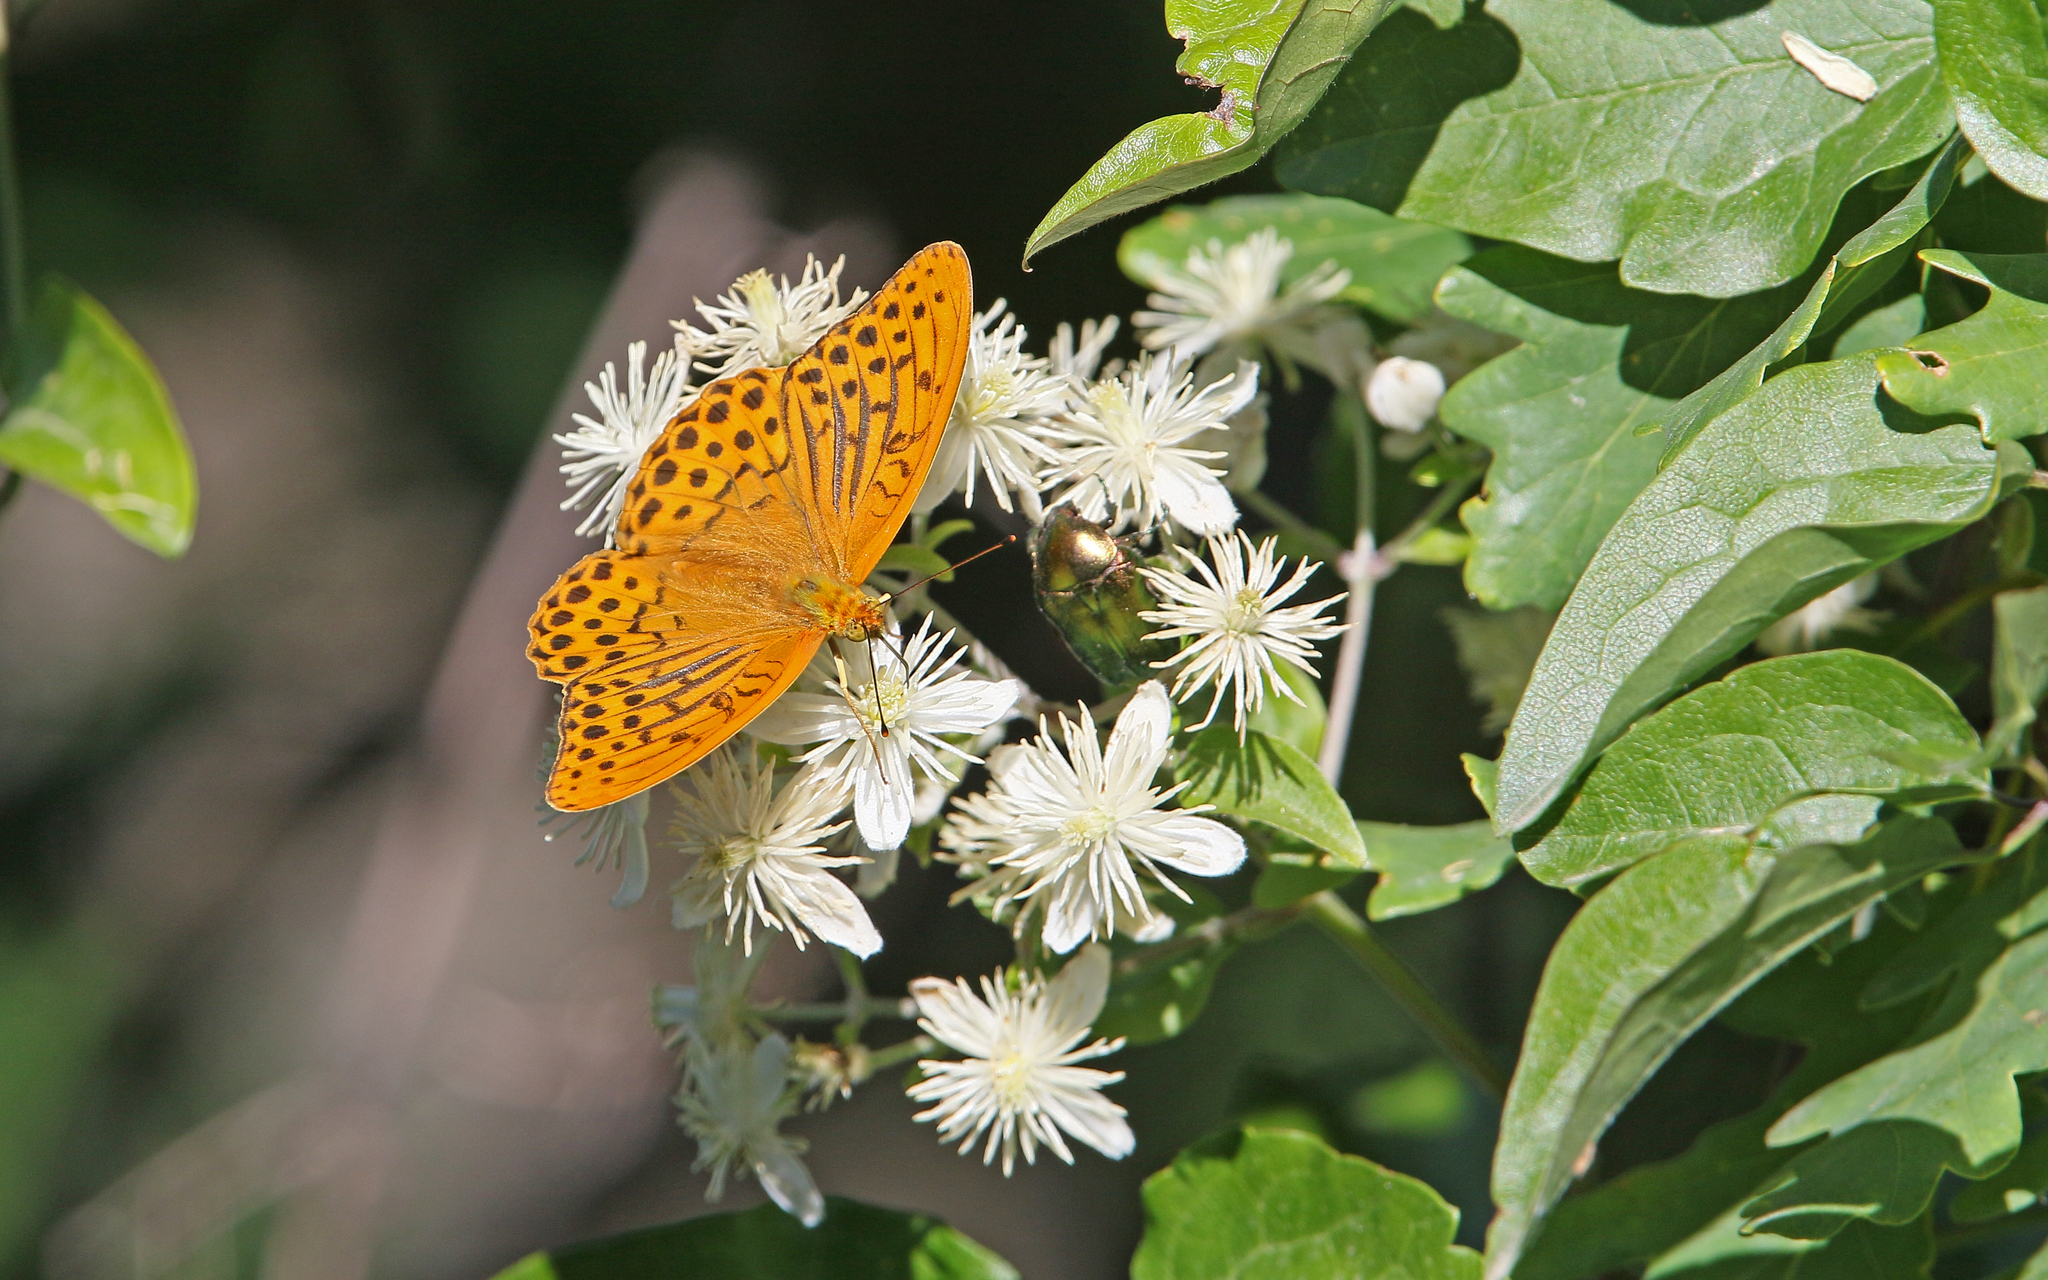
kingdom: Animalia
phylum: Arthropoda
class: Insecta
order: Lepidoptera
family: Nymphalidae
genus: Argynnis
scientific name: Argynnis paphia
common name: Silver-washed fritillary
